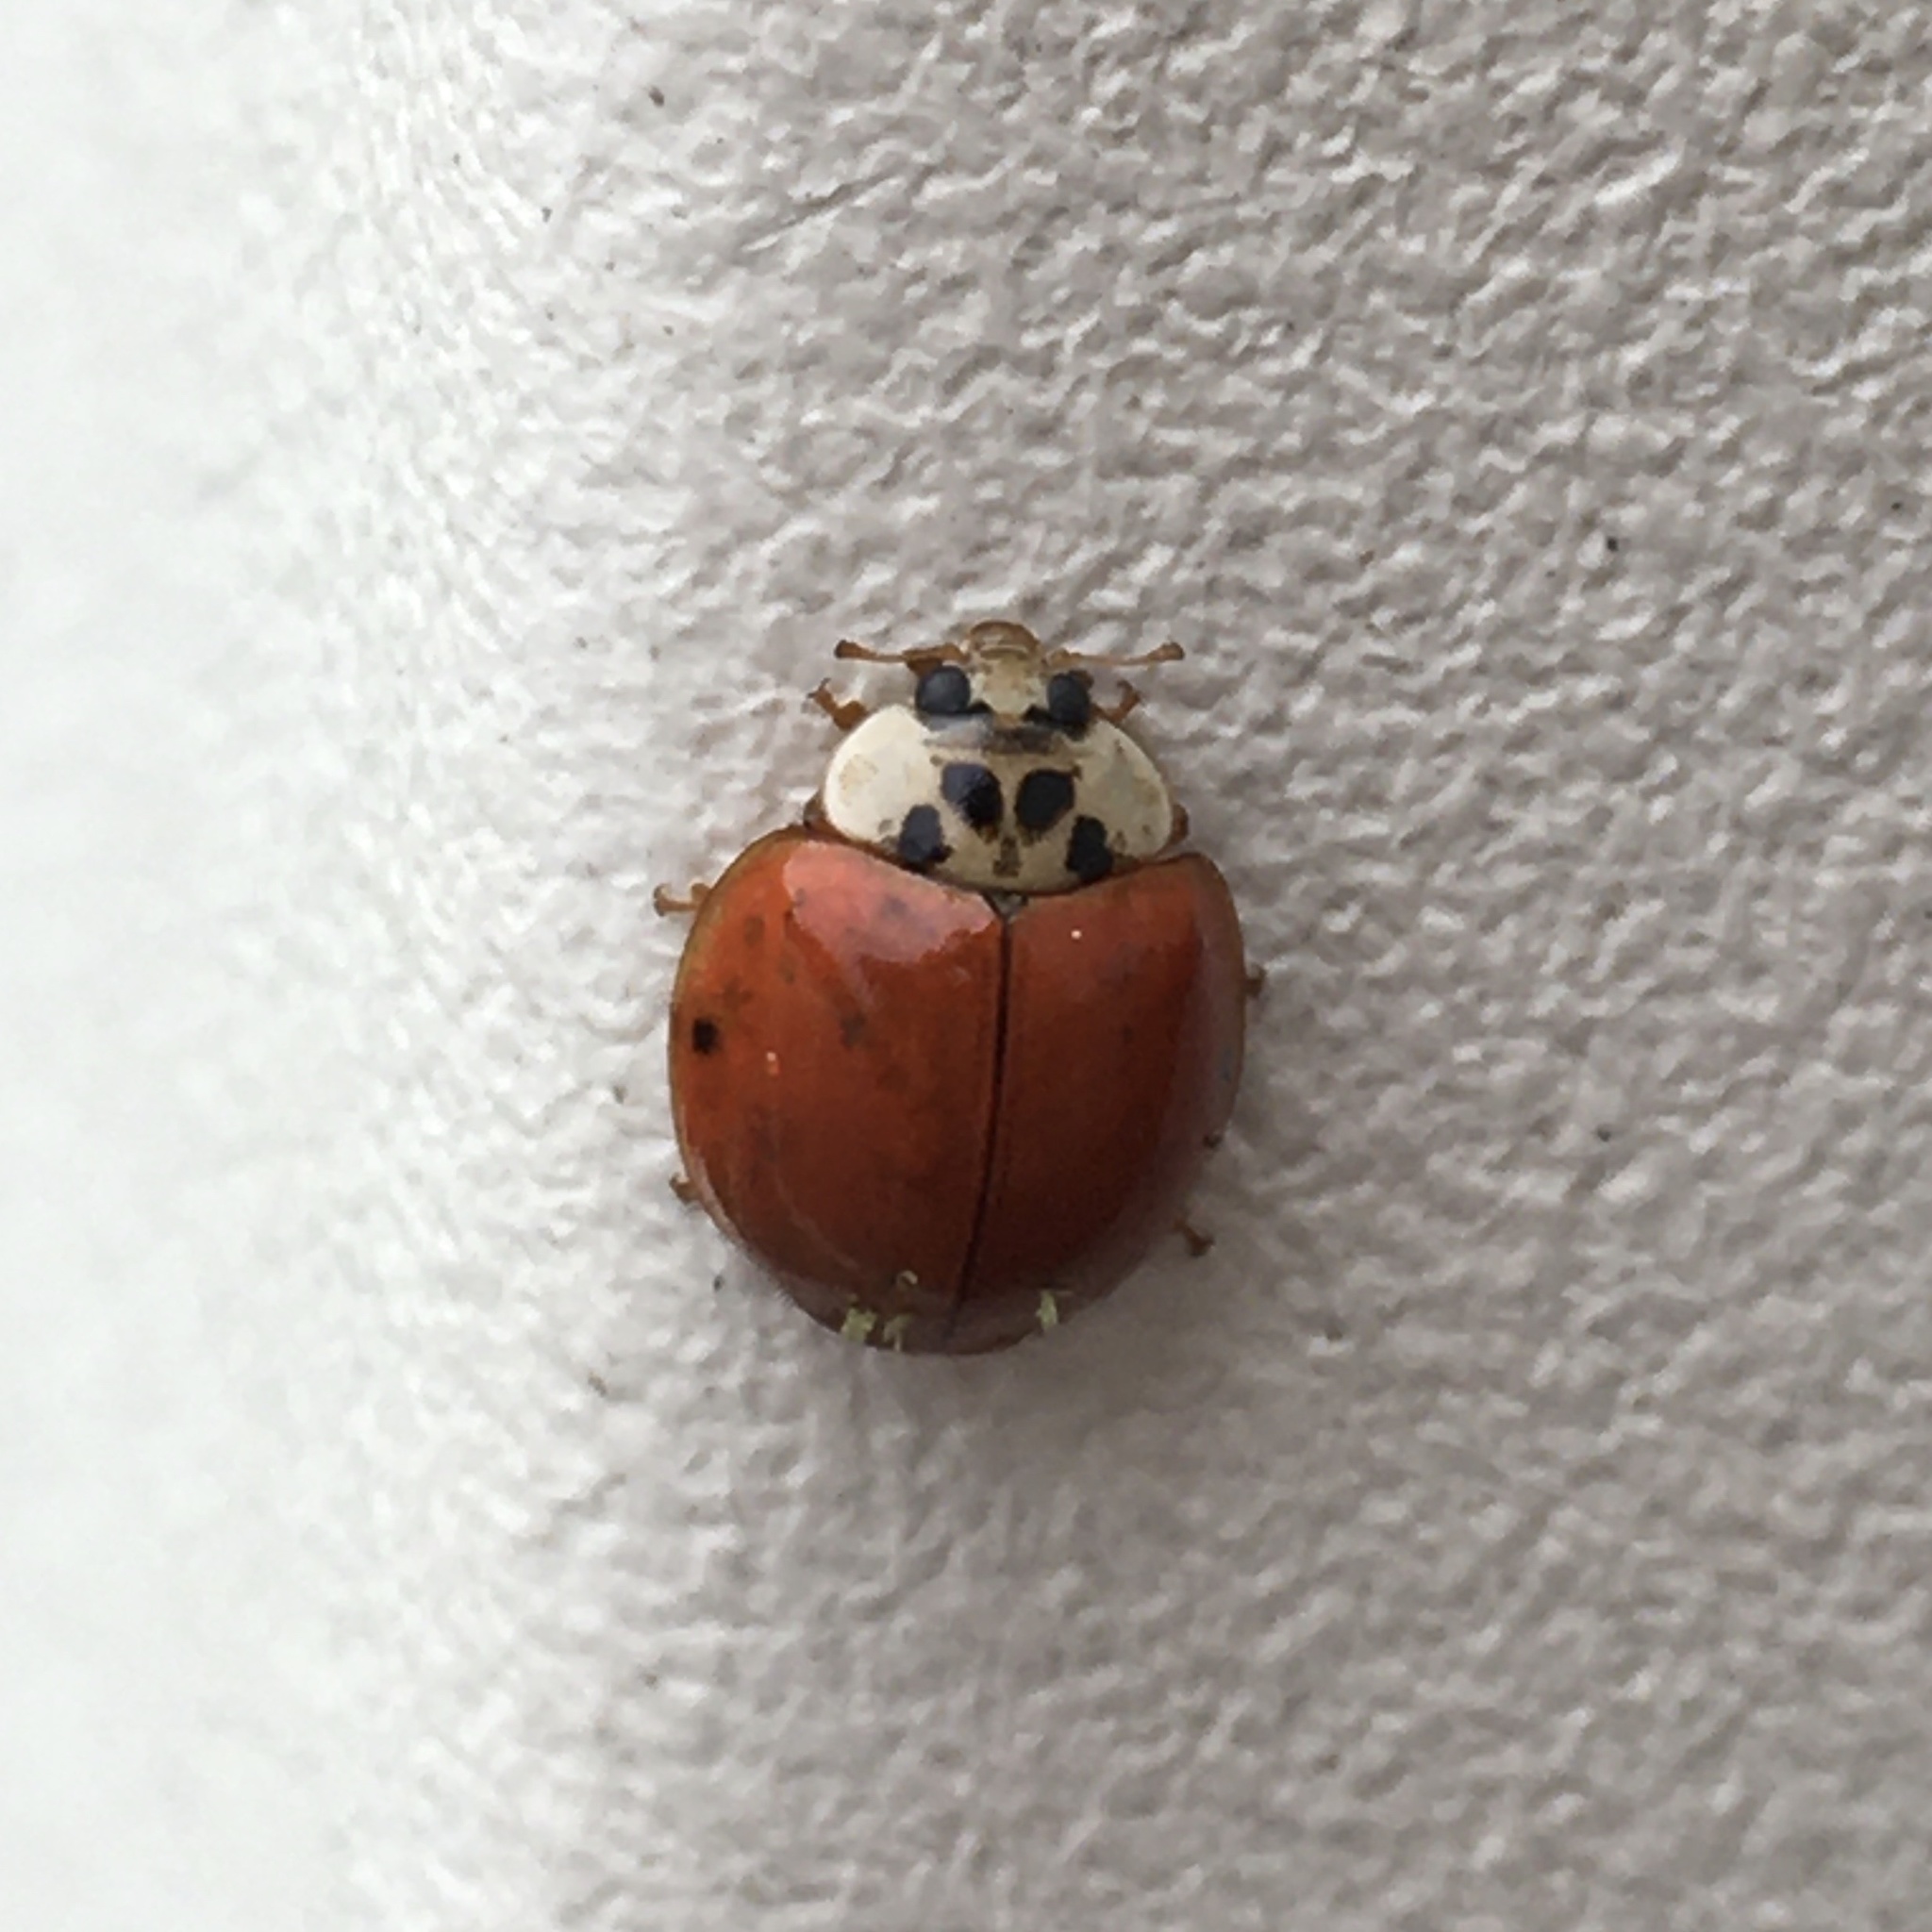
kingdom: Animalia
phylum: Arthropoda
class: Insecta
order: Coleoptera
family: Coccinellidae
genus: Harmonia
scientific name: Harmonia axyridis
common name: Harlequin ladybird
